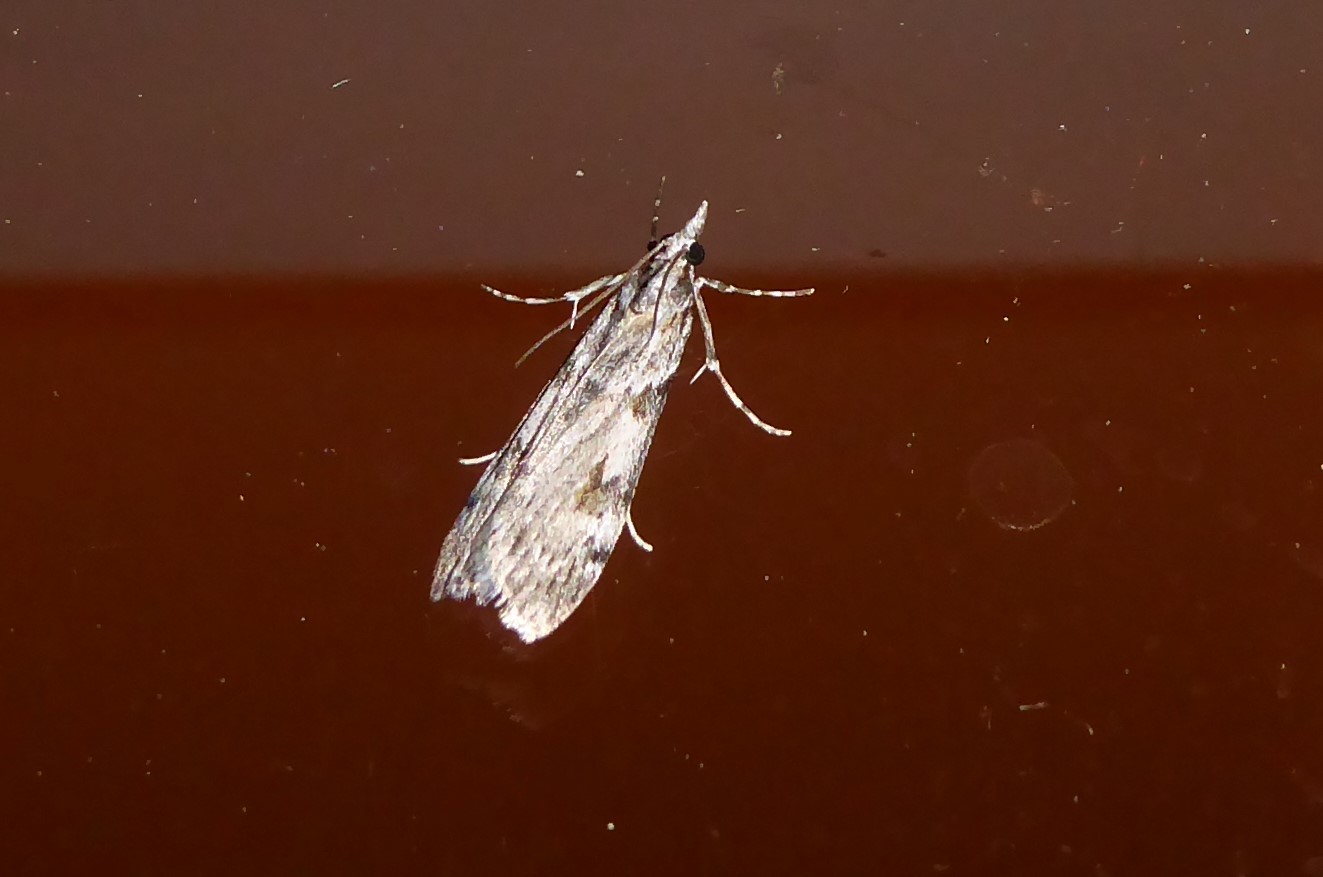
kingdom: Animalia
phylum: Arthropoda
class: Insecta
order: Lepidoptera
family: Crambidae
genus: Scoparia
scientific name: Scoparia halopis
